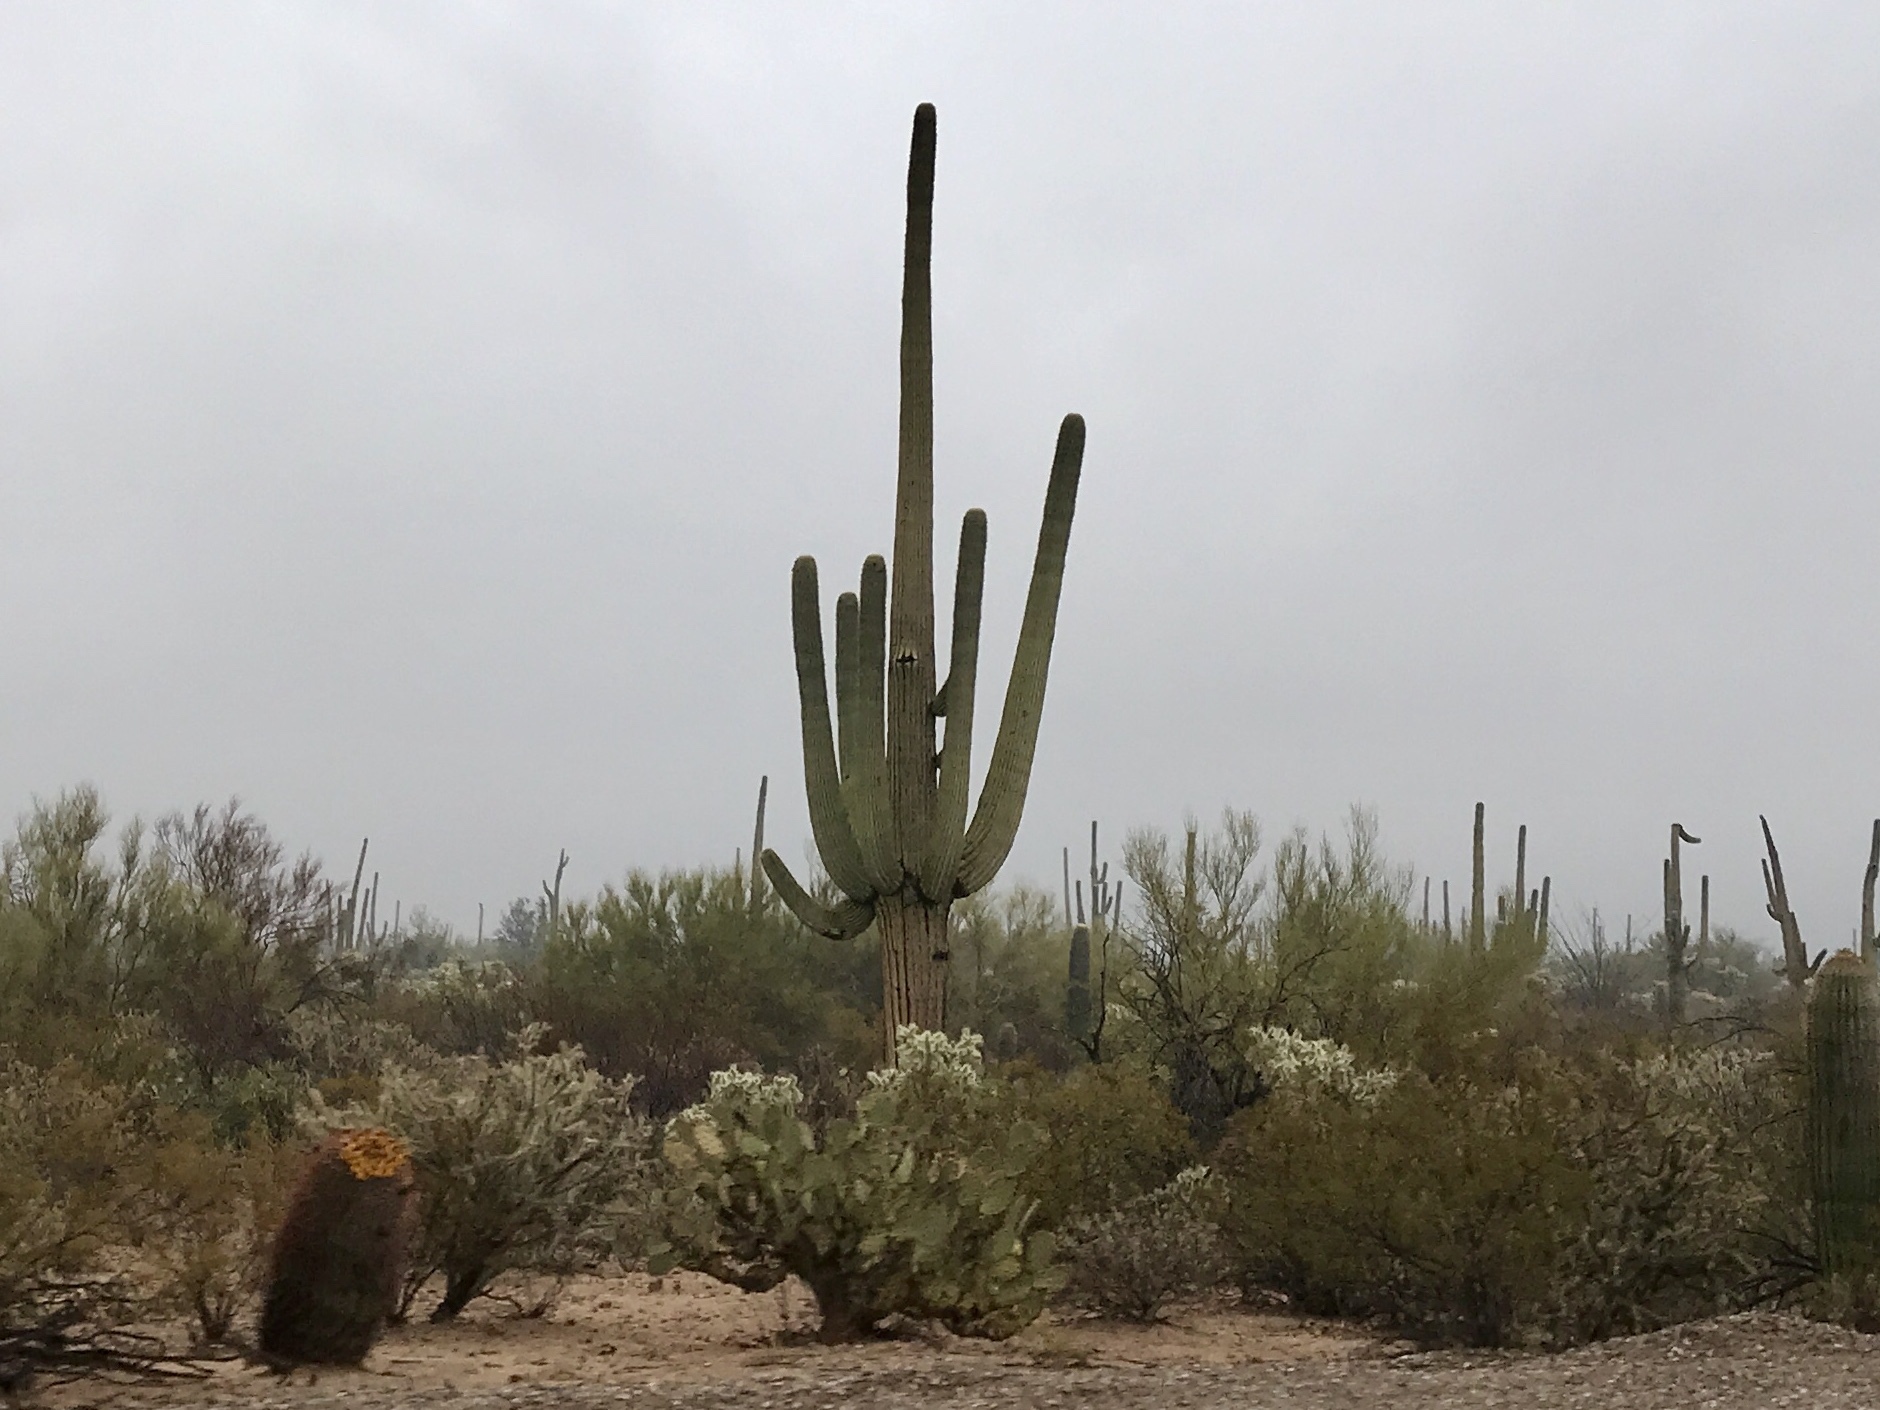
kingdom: Plantae
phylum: Tracheophyta
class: Magnoliopsida
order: Caryophyllales
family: Cactaceae
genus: Carnegiea
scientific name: Carnegiea gigantea
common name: Saguaro
